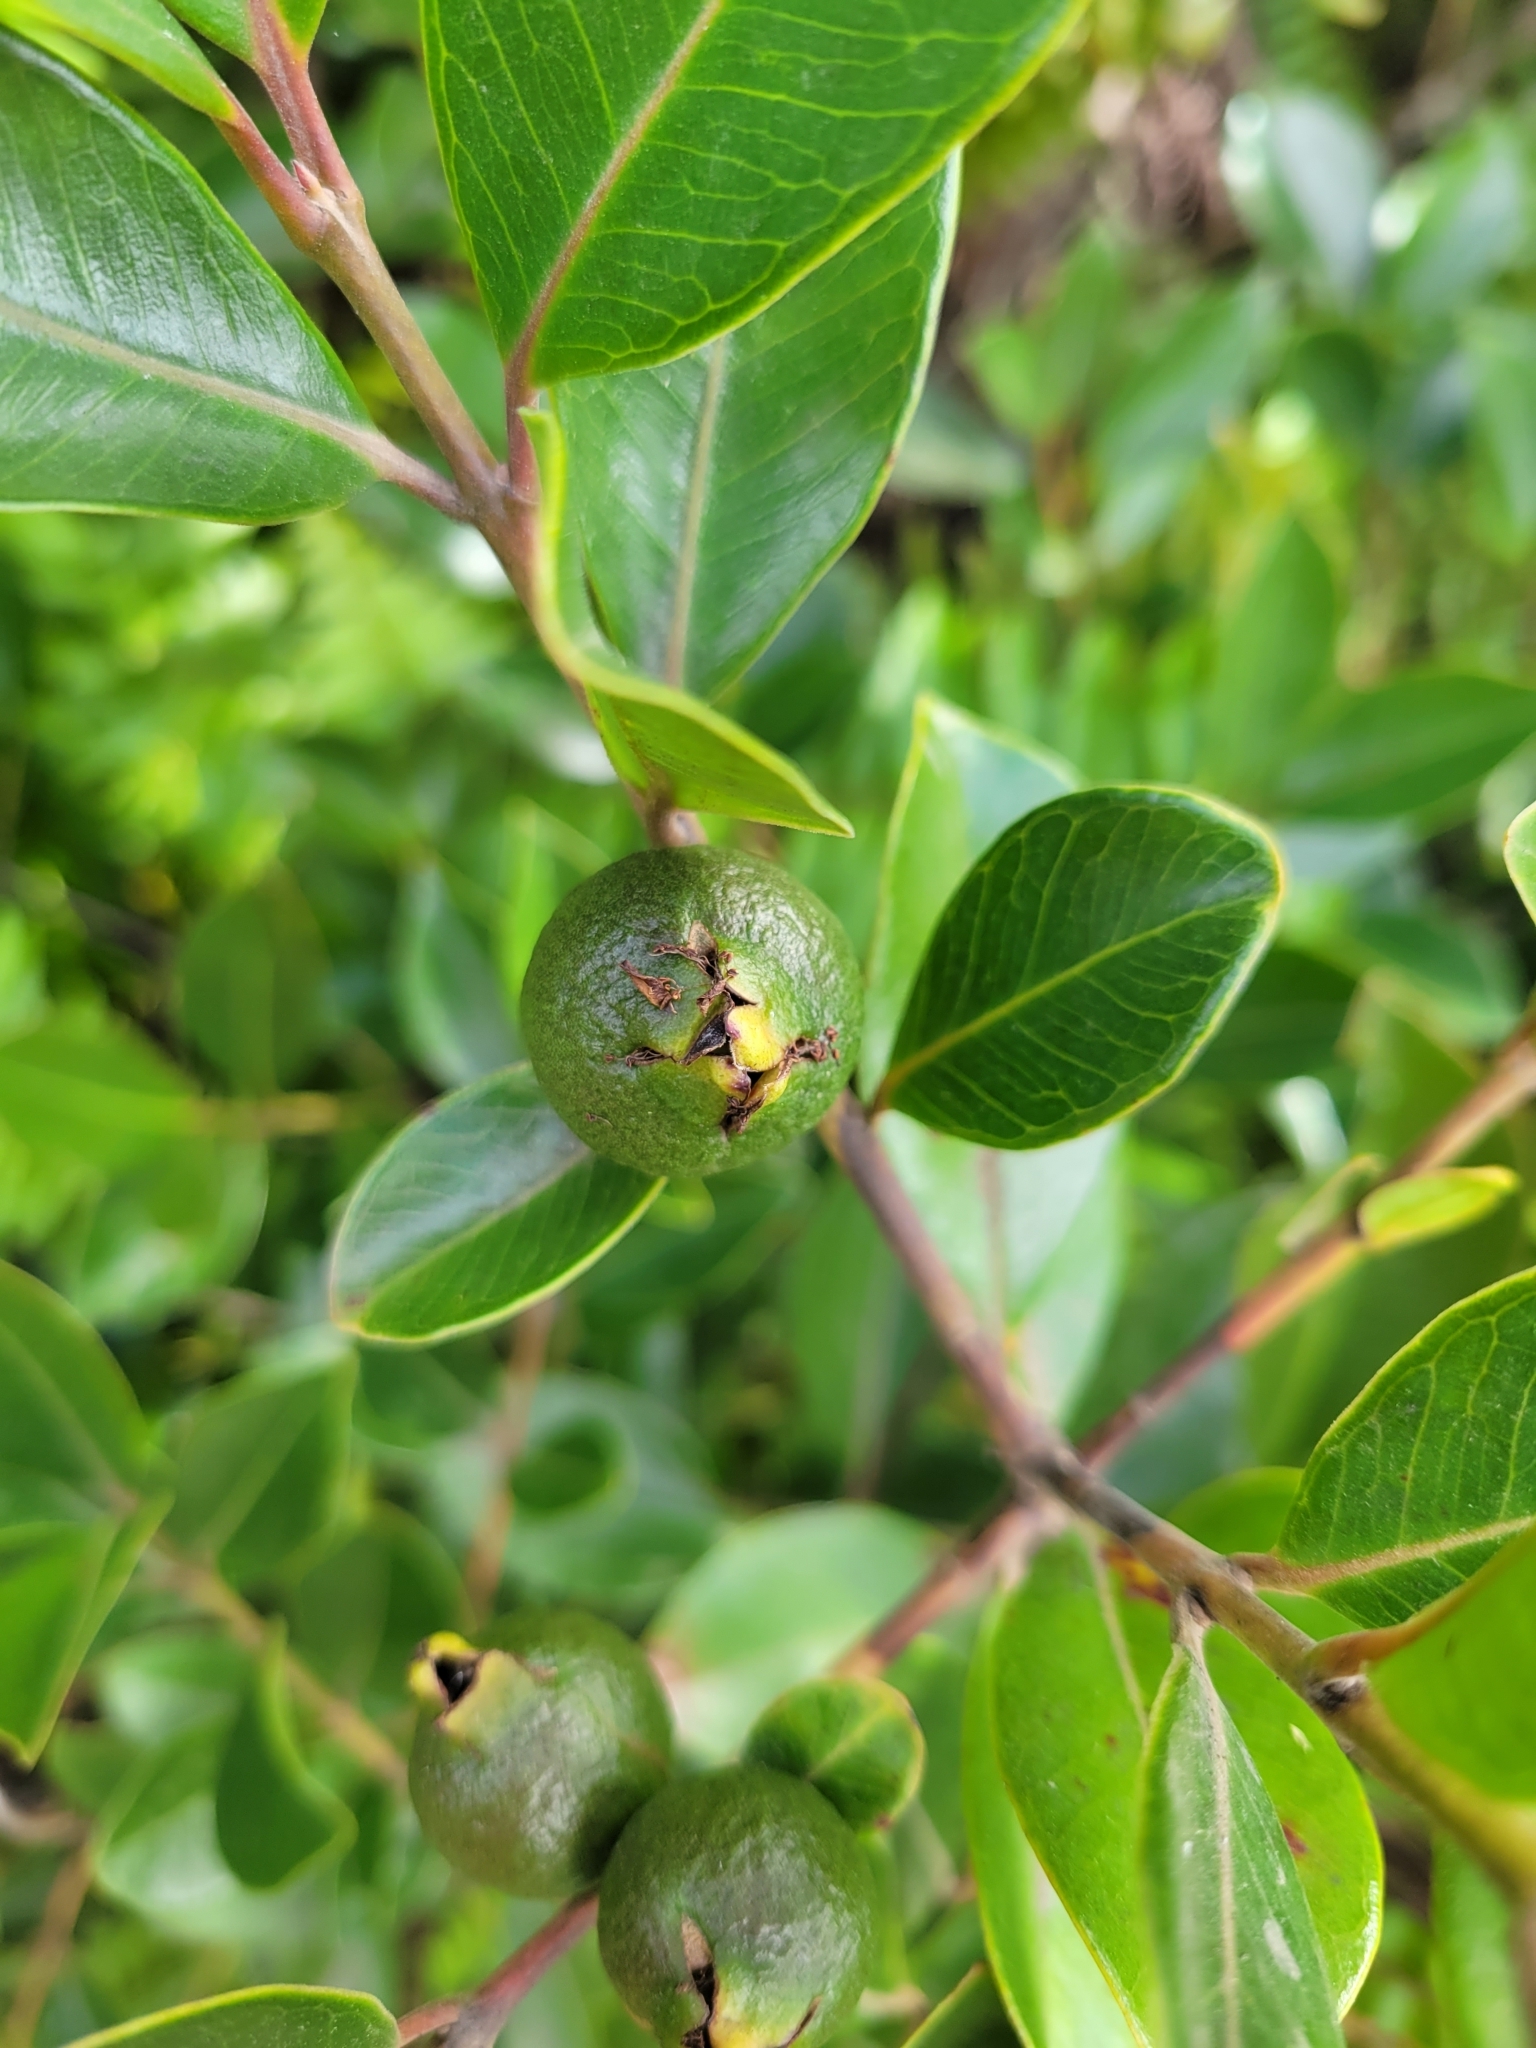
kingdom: Plantae
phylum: Tracheophyta
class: Magnoliopsida
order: Myrtales
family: Myrtaceae
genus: Psidium
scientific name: Psidium cattleianum
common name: Strawberry guava
